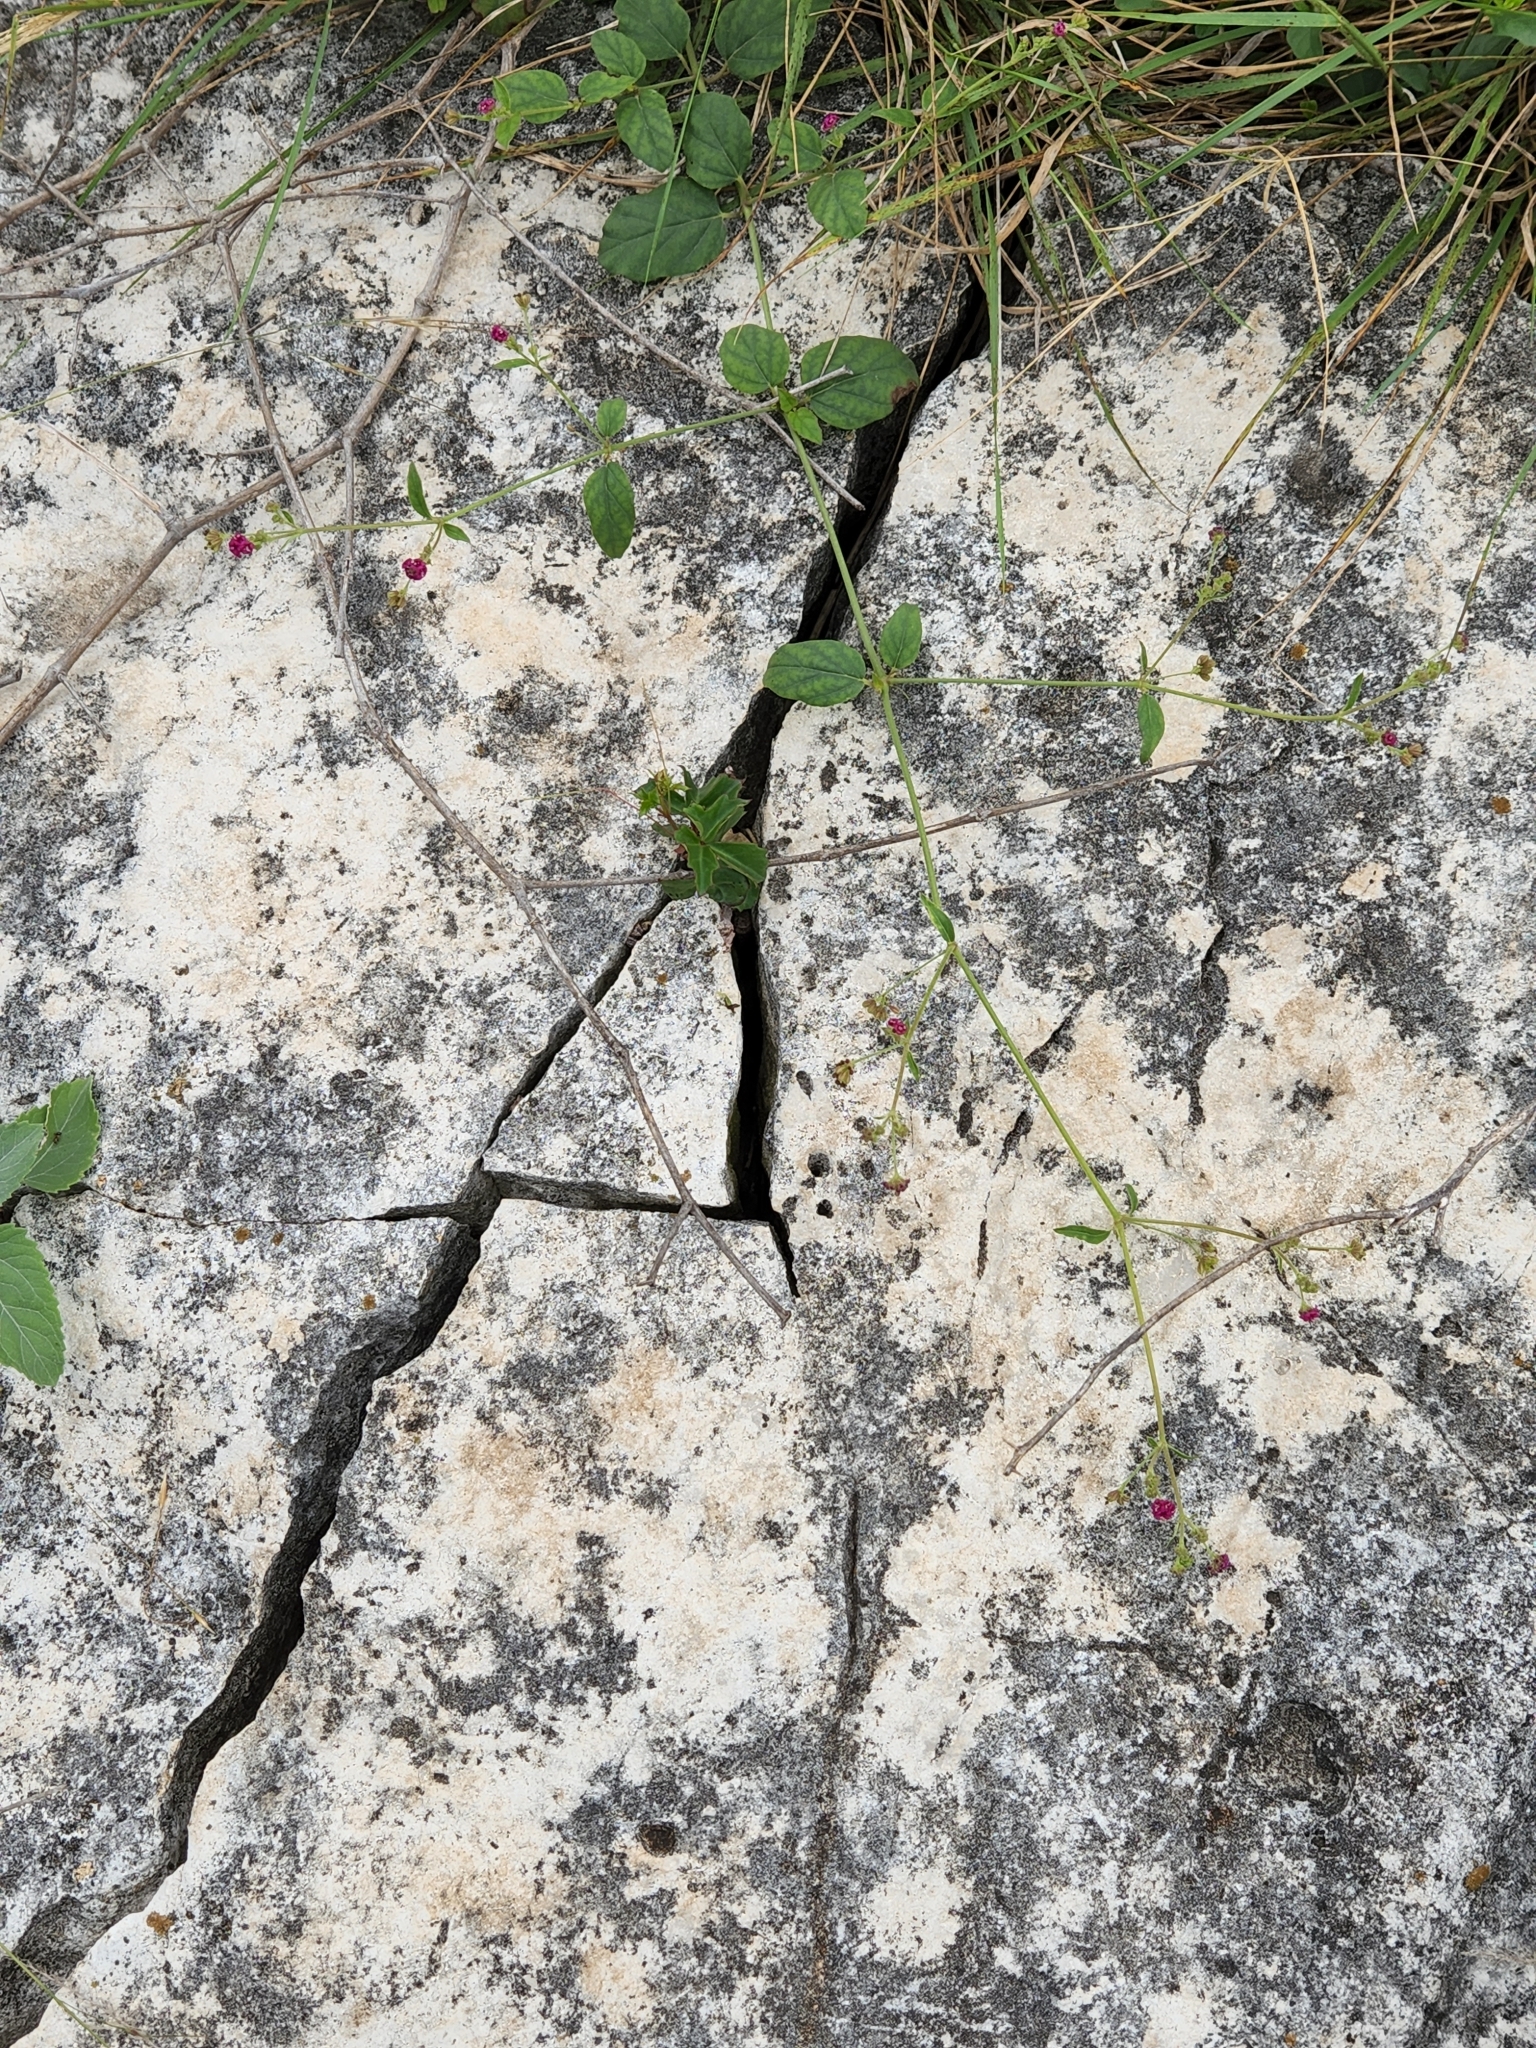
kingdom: Plantae
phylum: Tracheophyta
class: Magnoliopsida
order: Caryophyllales
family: Nyctaginaceae
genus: Boerhavia
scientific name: Boerhavia coccinea
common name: Scarlet spiderling
